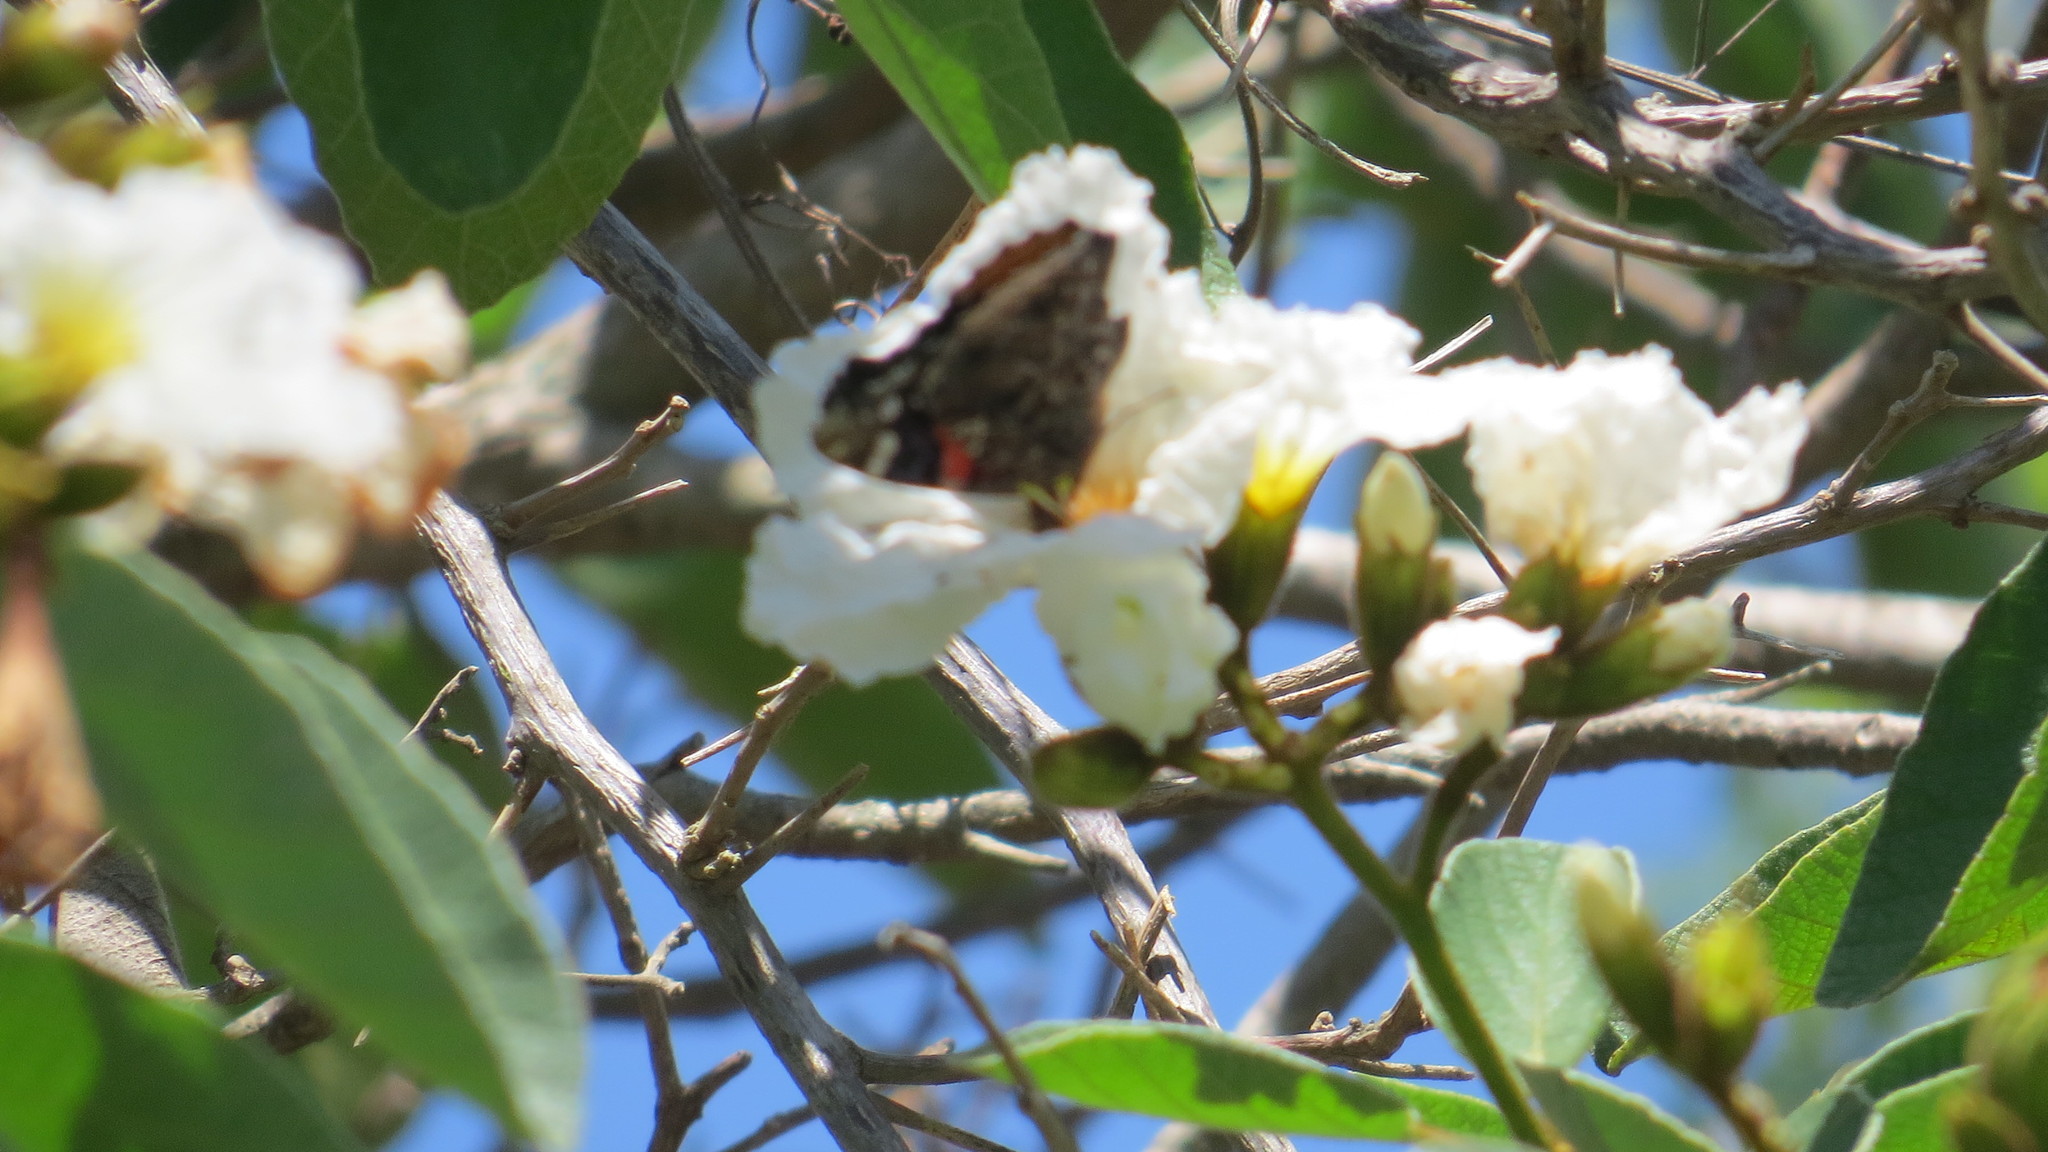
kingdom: Animalia
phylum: Arthropoda
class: Insecta
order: Lepidoptera
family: Nymphalidae
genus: Vanessa
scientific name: Vanessa atalanta
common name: Red admiral
